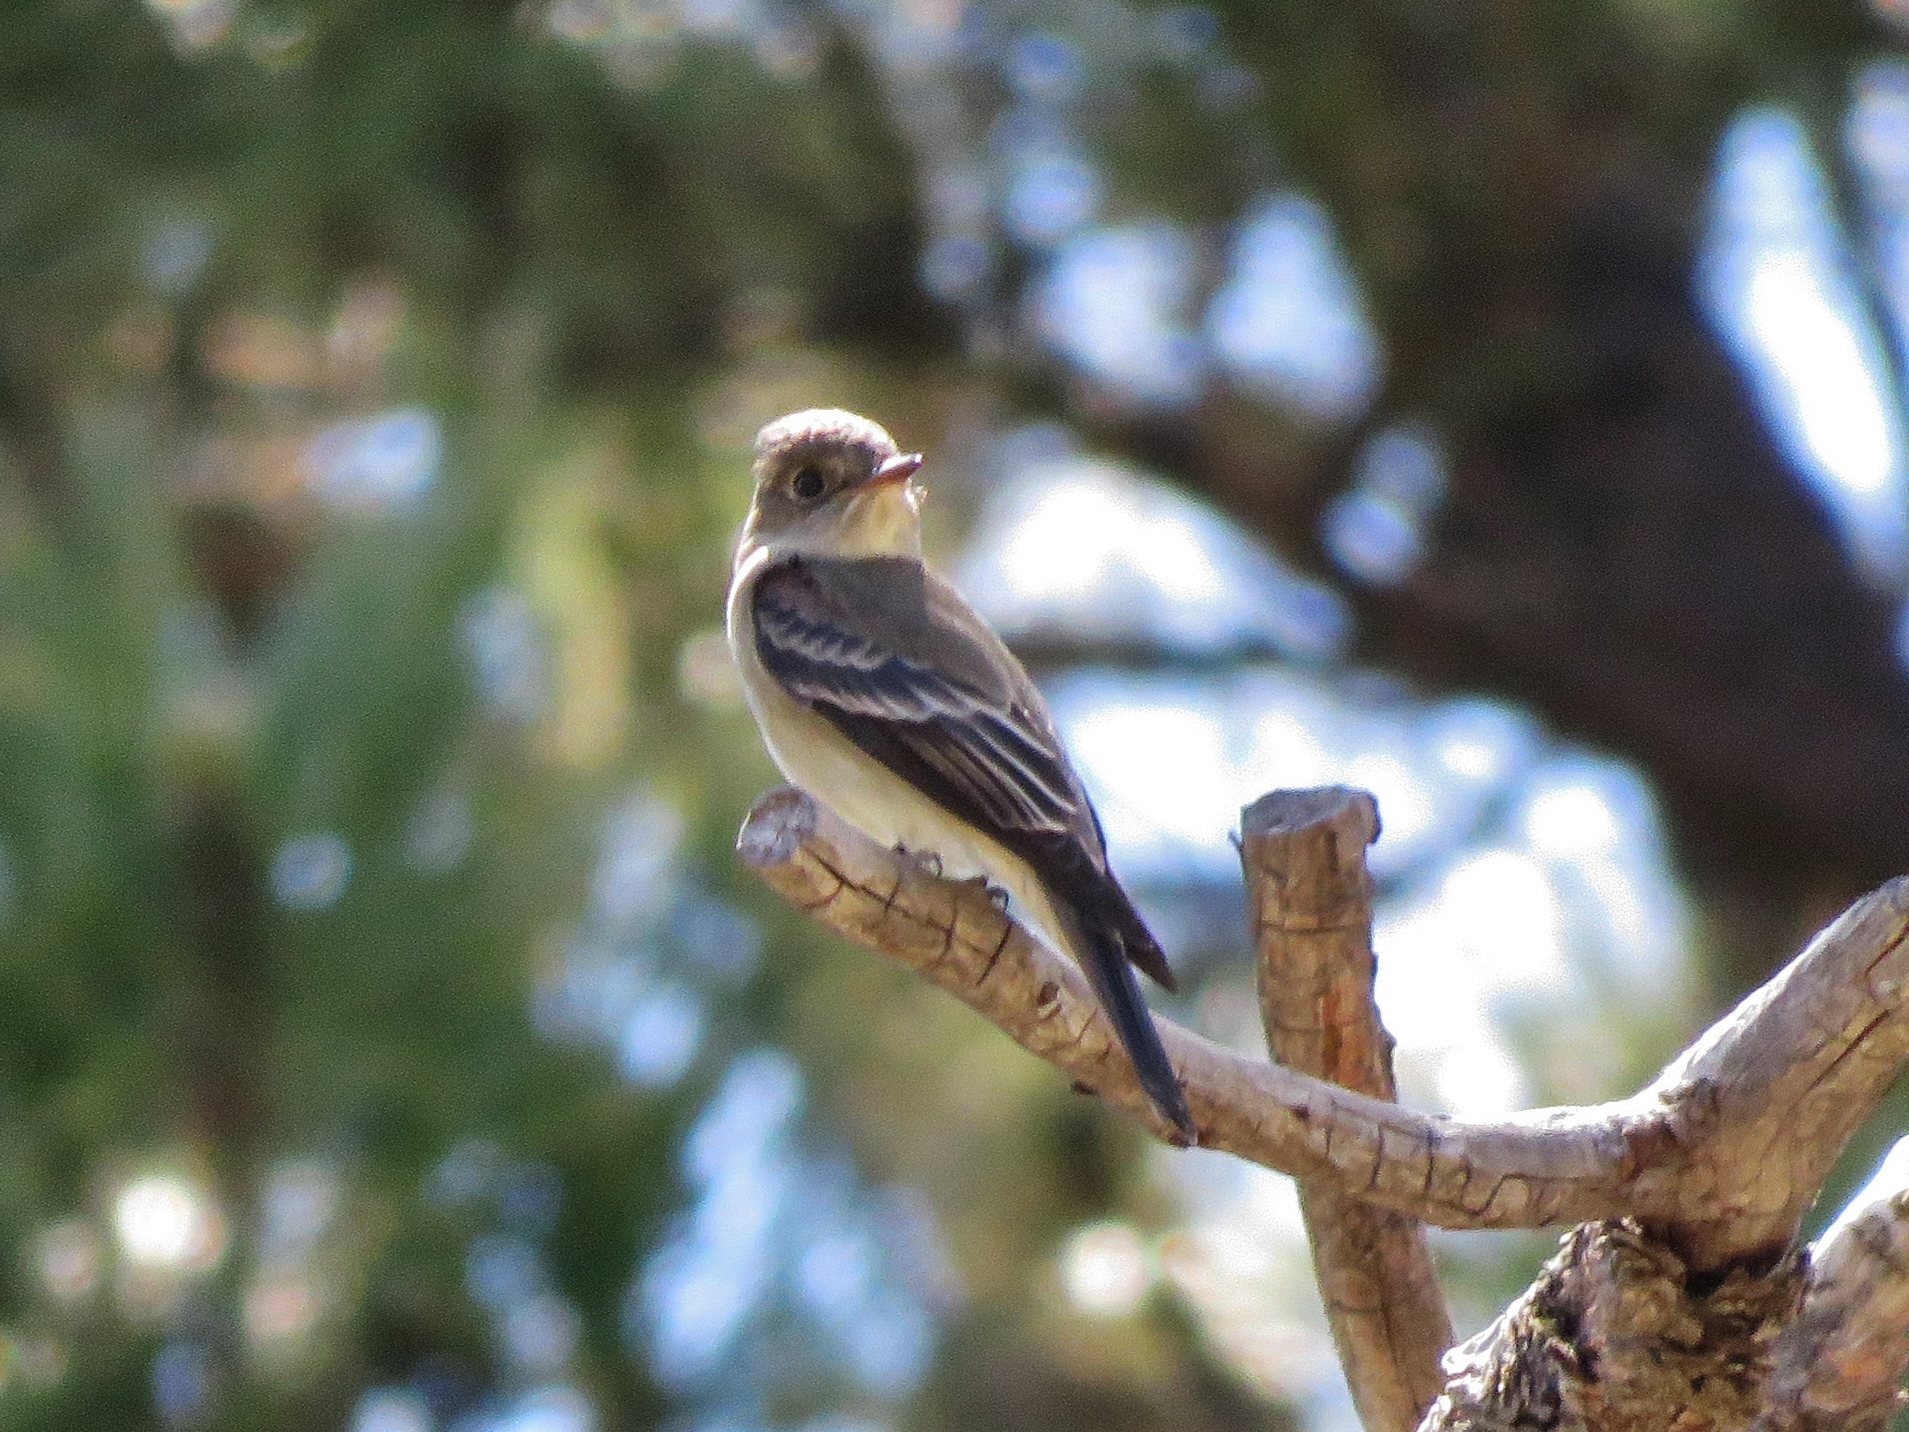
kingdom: Animalia
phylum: Chordata
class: Aves
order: Passeriformes
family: Tyrannidae
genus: Contopus
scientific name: Contopus sordidulus
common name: Western wood-pewee
